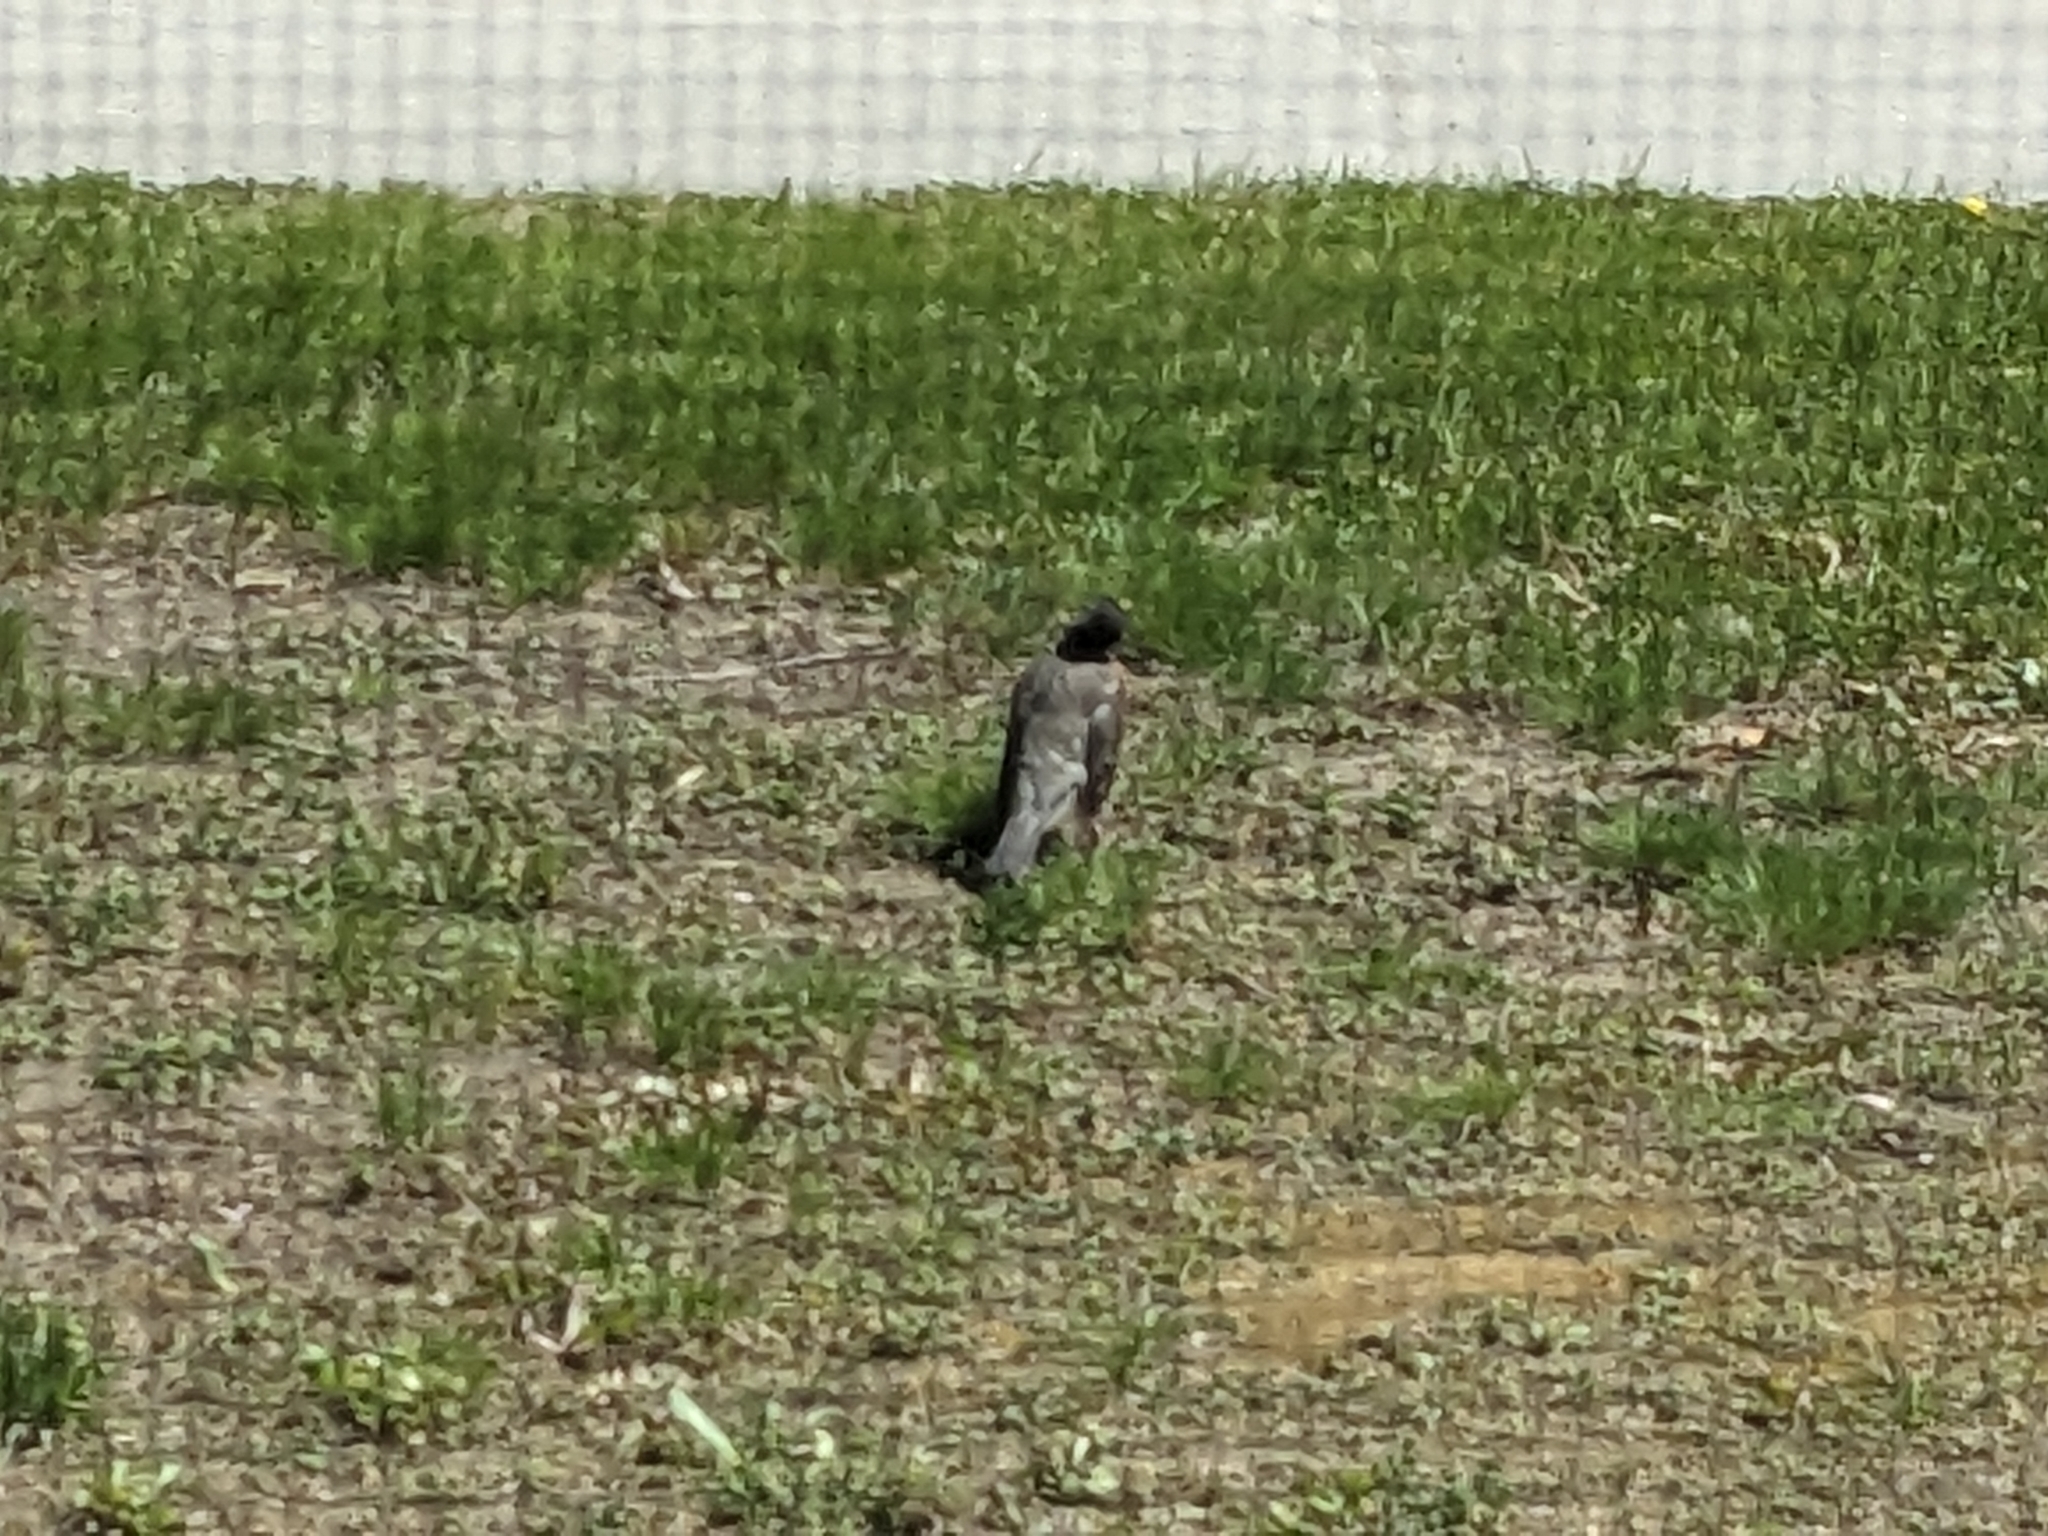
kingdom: Animalia
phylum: Chordata
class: Aves
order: Passeriformes
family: Turdidae
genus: Turdus
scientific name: Turdus migratorius
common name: American robin
